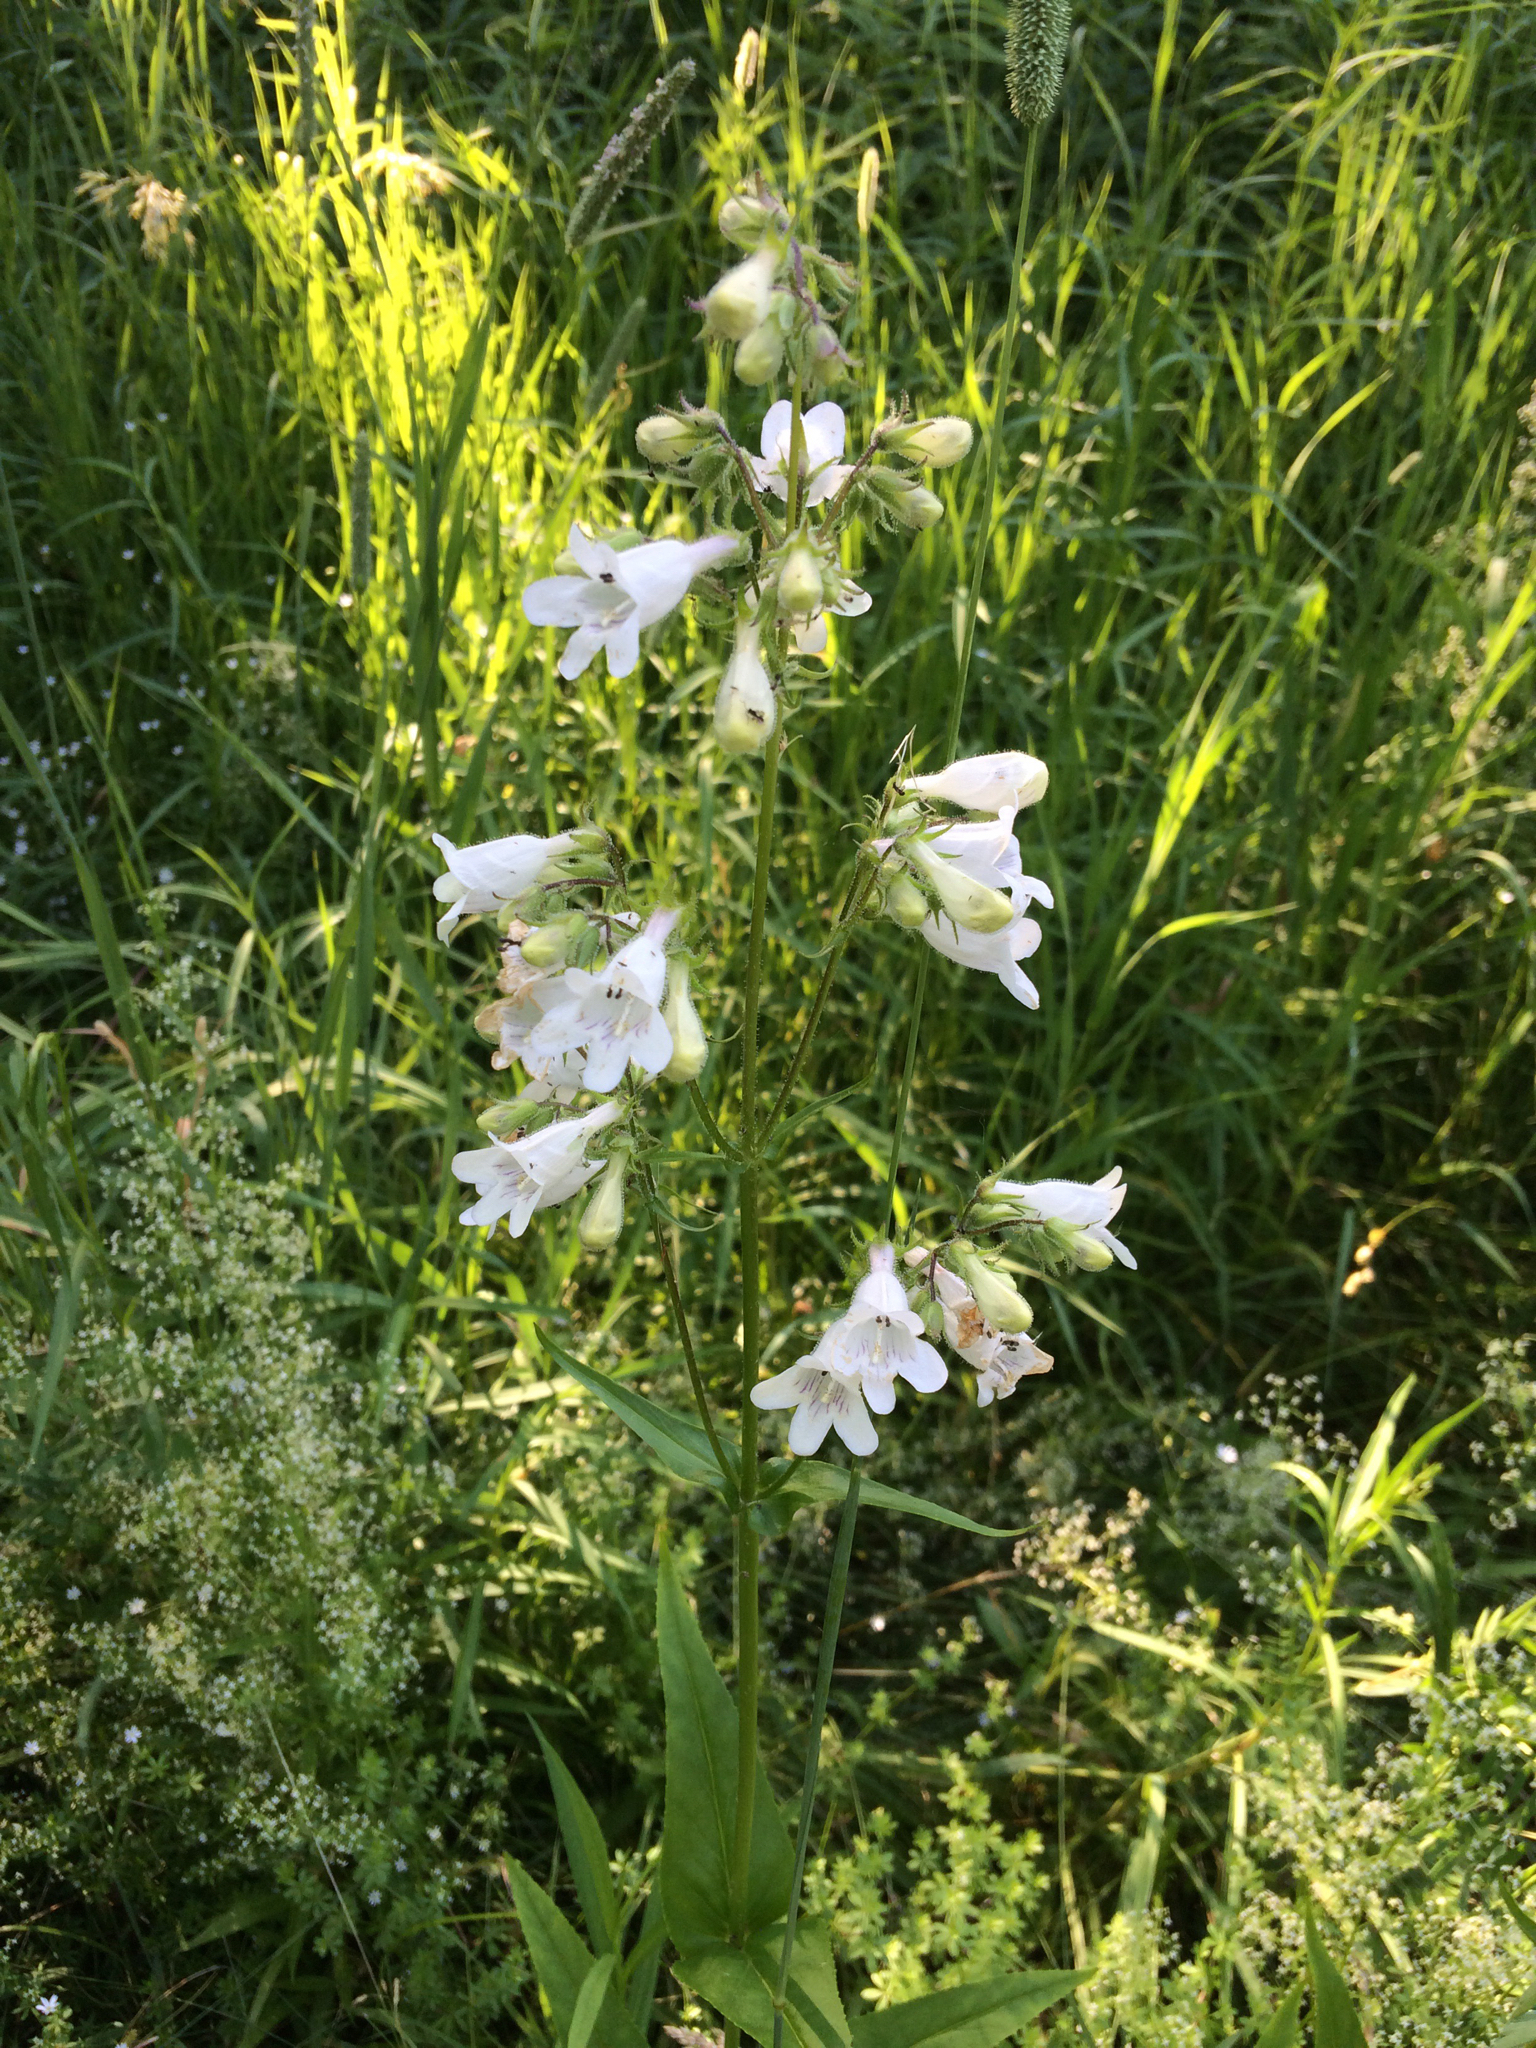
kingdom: Plantae
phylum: Tracheophyta
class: Magnoliopsida
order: Lamiales
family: Plantaginaceae
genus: Penstemon
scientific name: Penstemon digitalis
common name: Foxglove beardtongue
